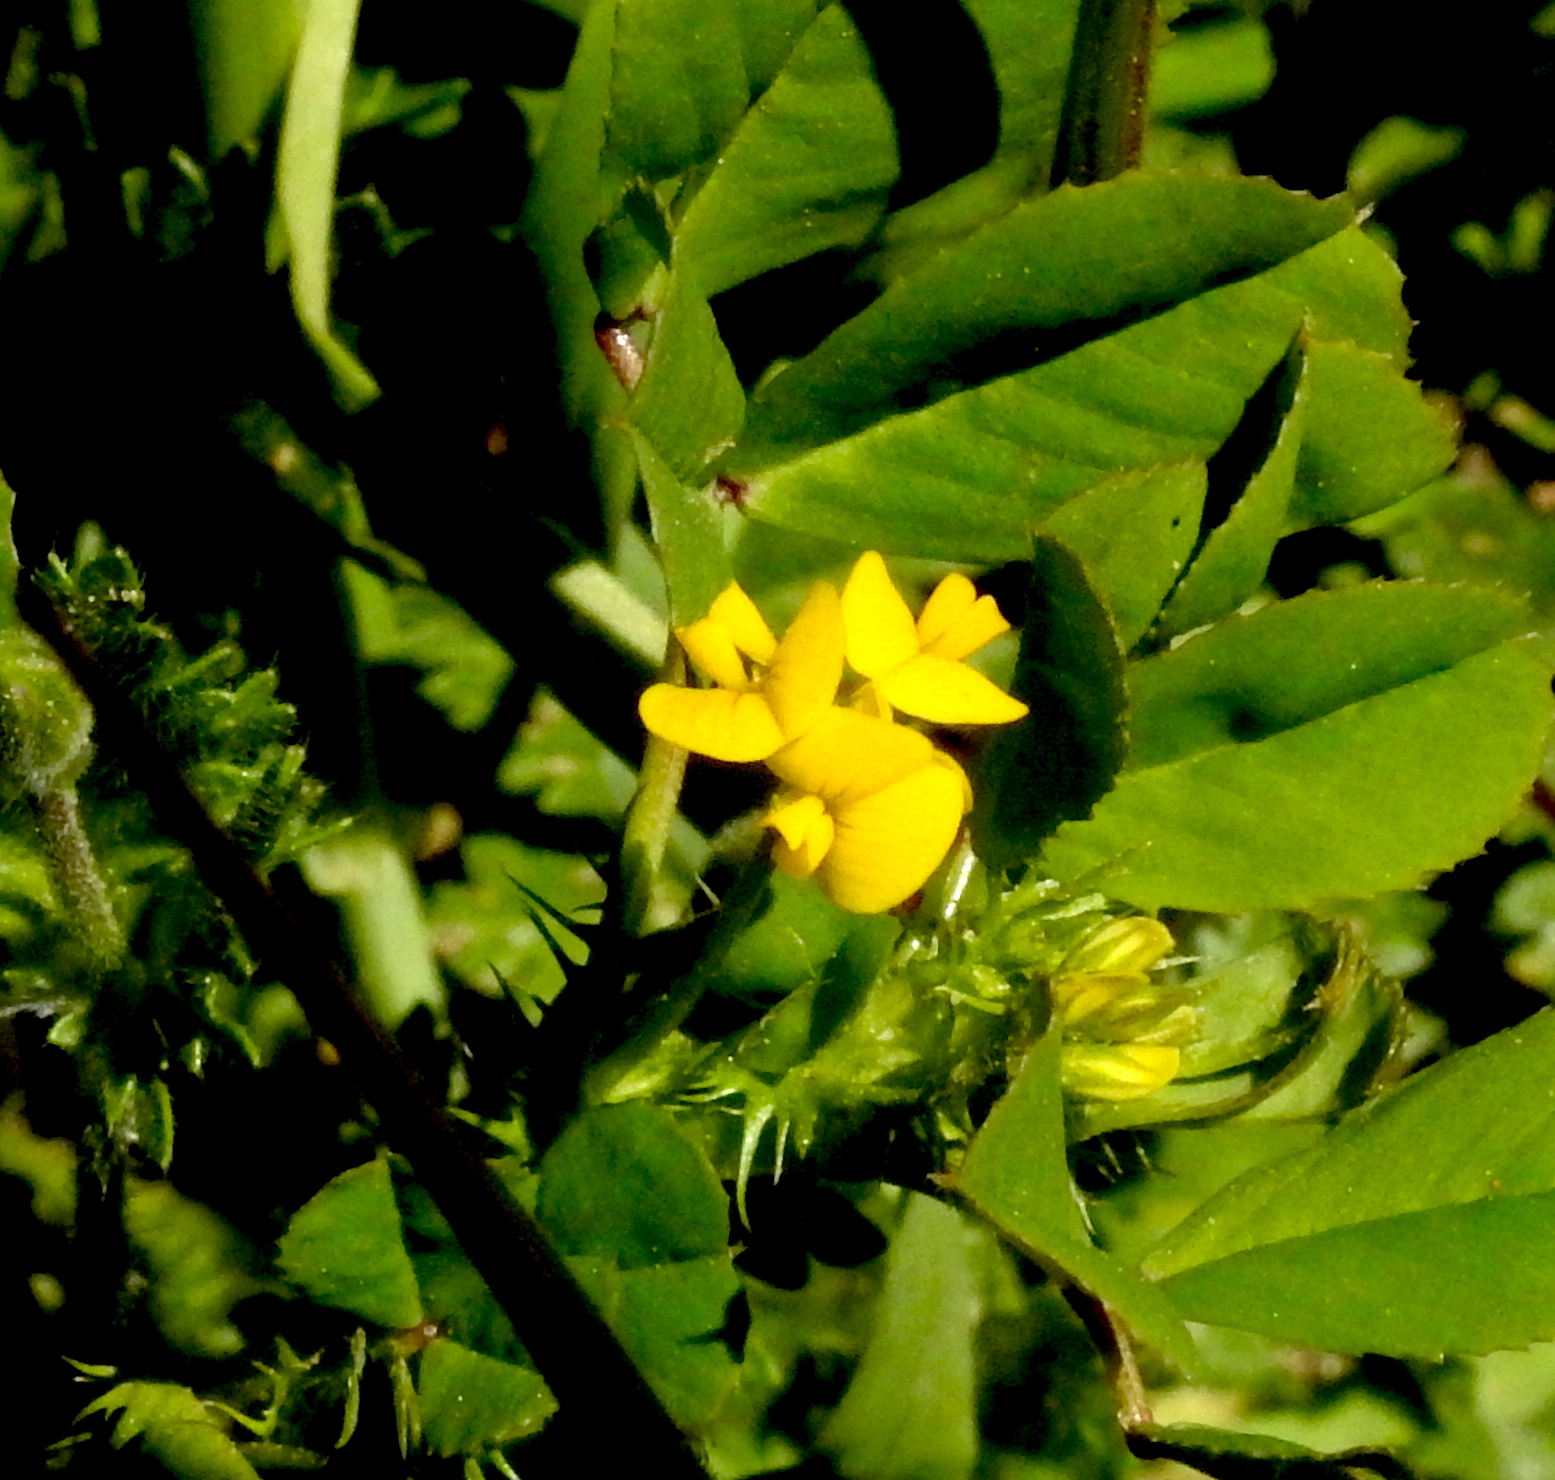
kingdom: Plantae
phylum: Tracheophyta
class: Magnoliopsida
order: Fabales
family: Fabaceae
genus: Medicago
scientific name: Medicago polymorpha
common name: Burclover
